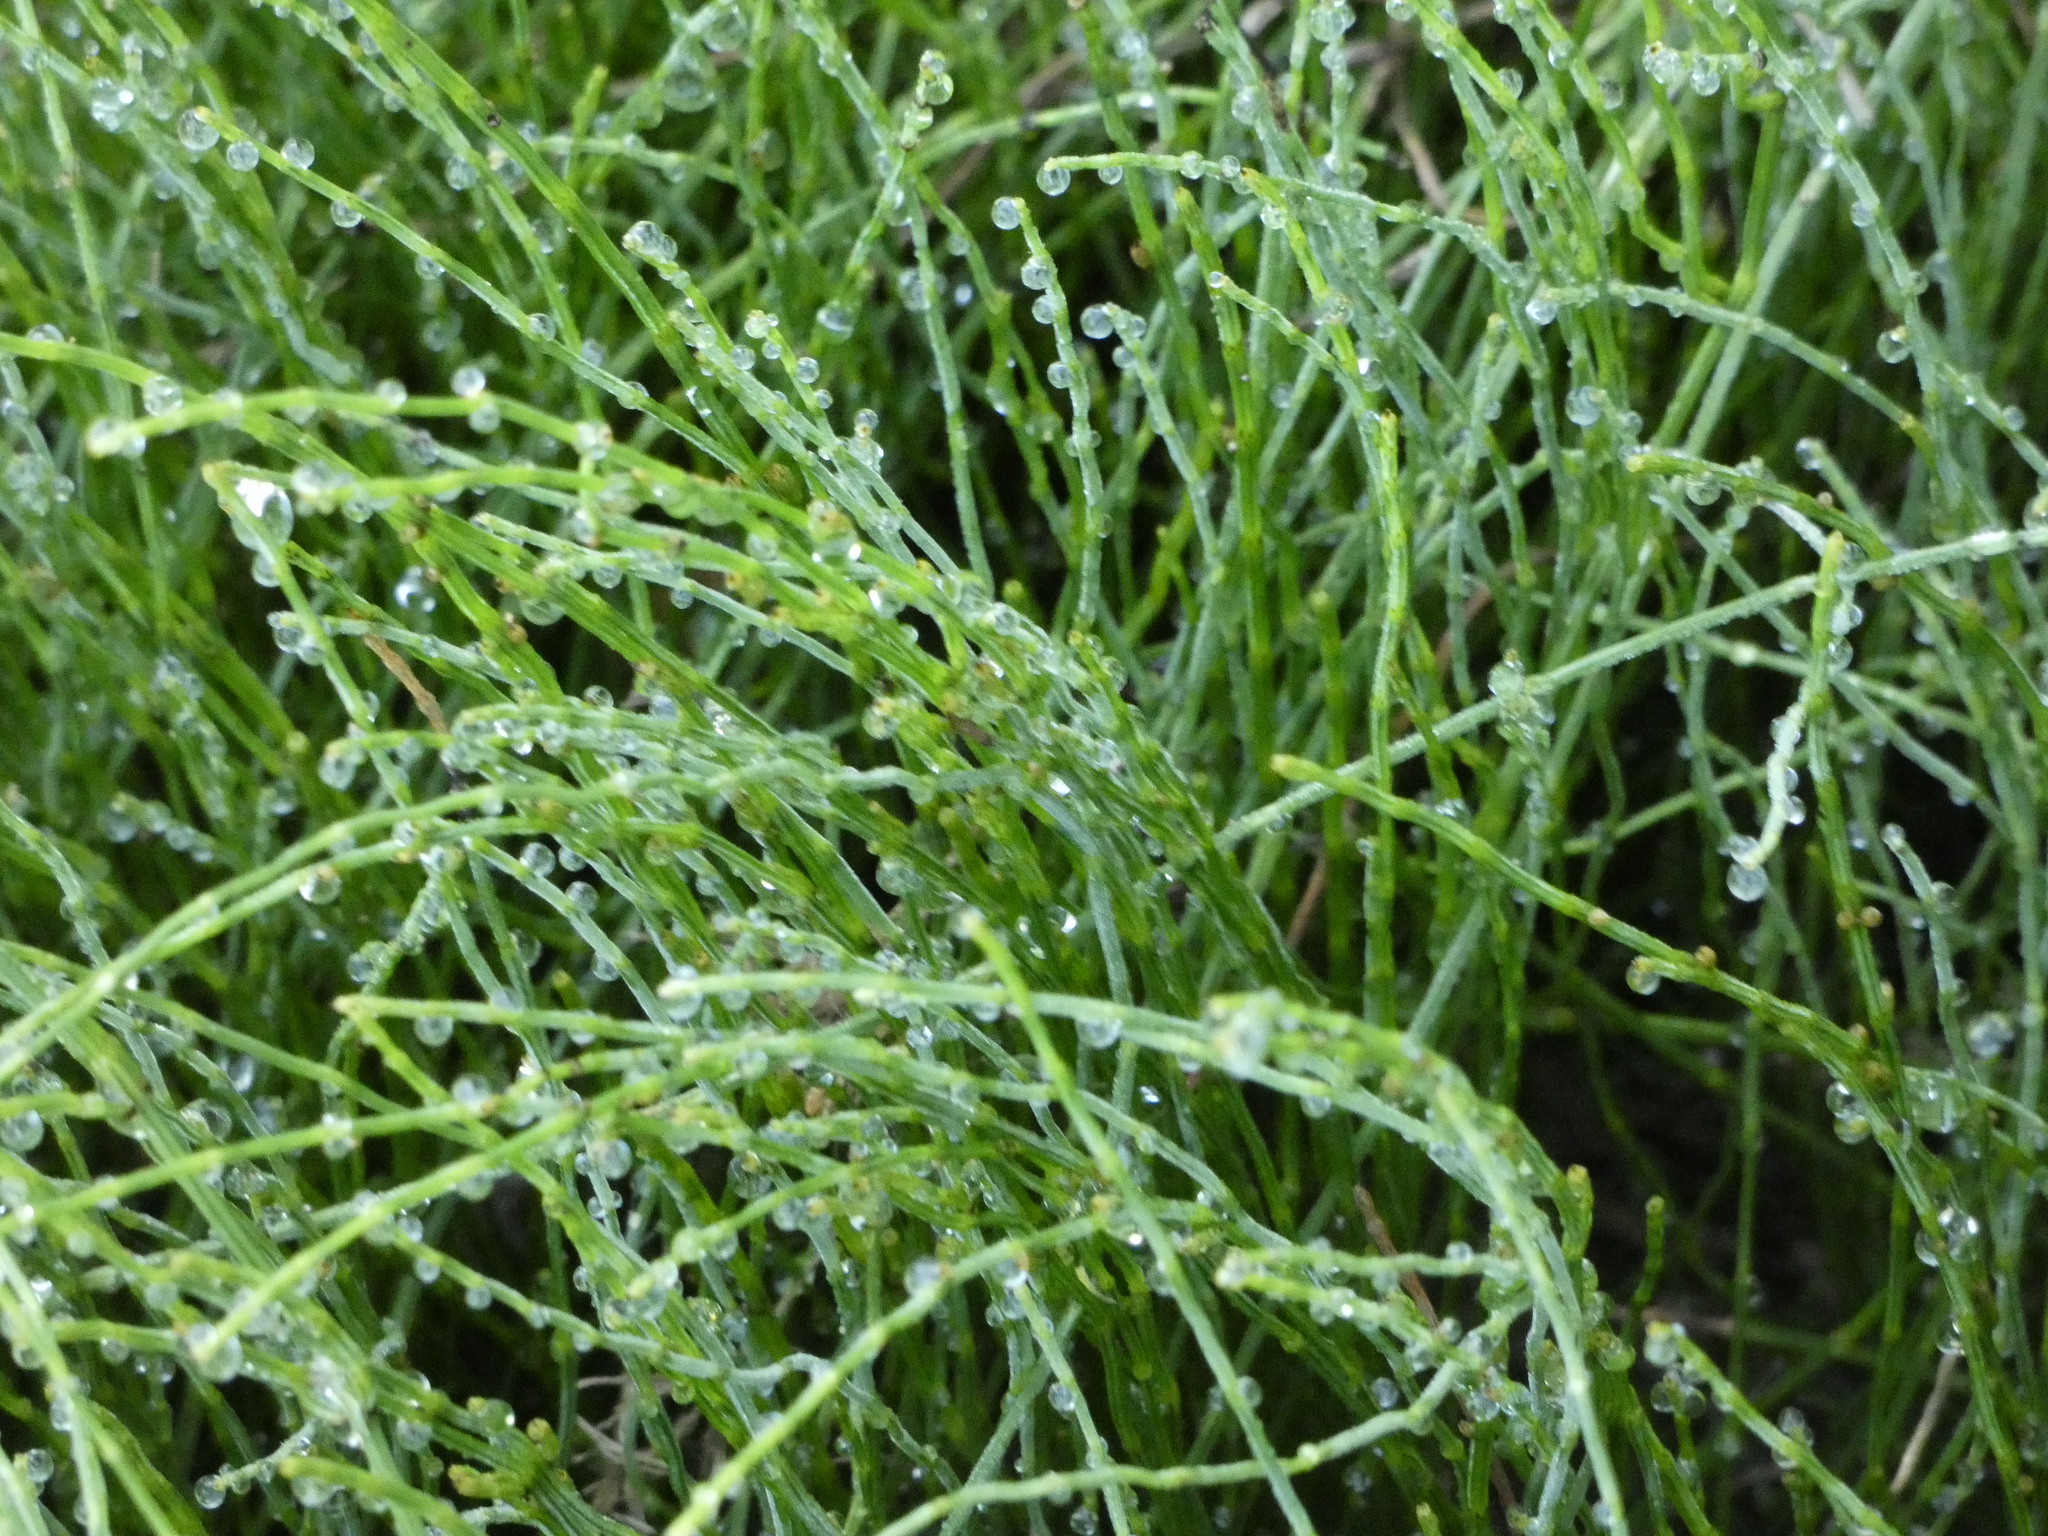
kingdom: Plantae
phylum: Tracheophyta
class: Polypodiopsida
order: Equisetales
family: Equisetaceae
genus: Equisetum
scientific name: Equisetum bogotense
